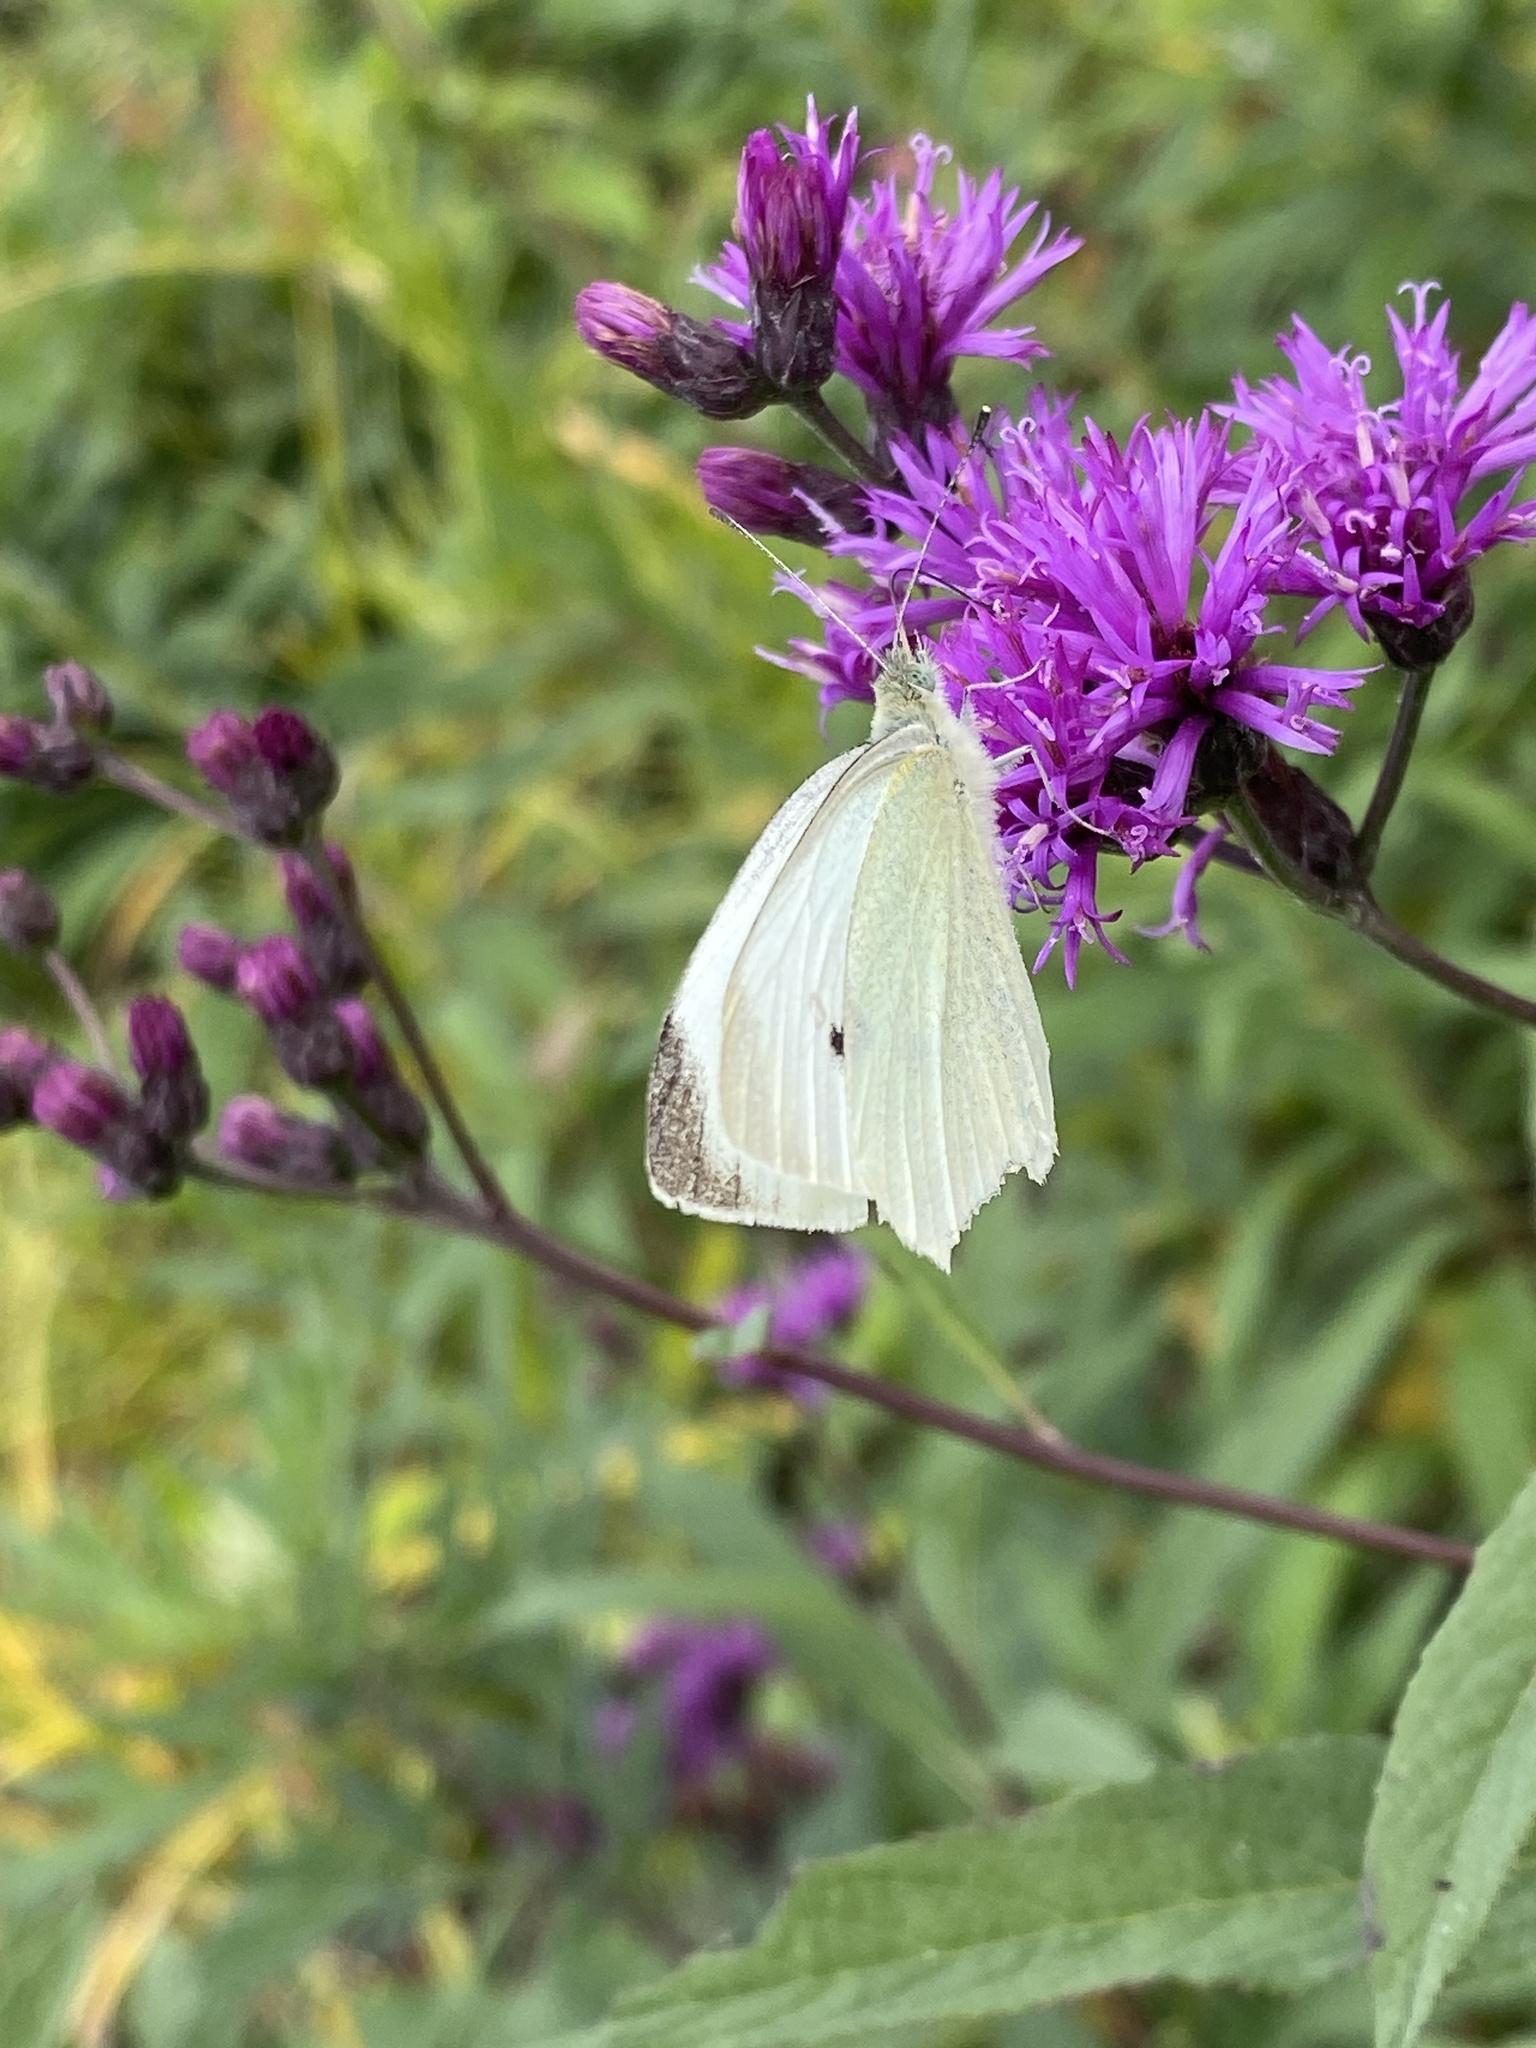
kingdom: Animalia
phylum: Arthropoda
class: Insecta
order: Lepidoptera
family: Pieridae
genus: Pieris
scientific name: Pieris rapae
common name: Small white
